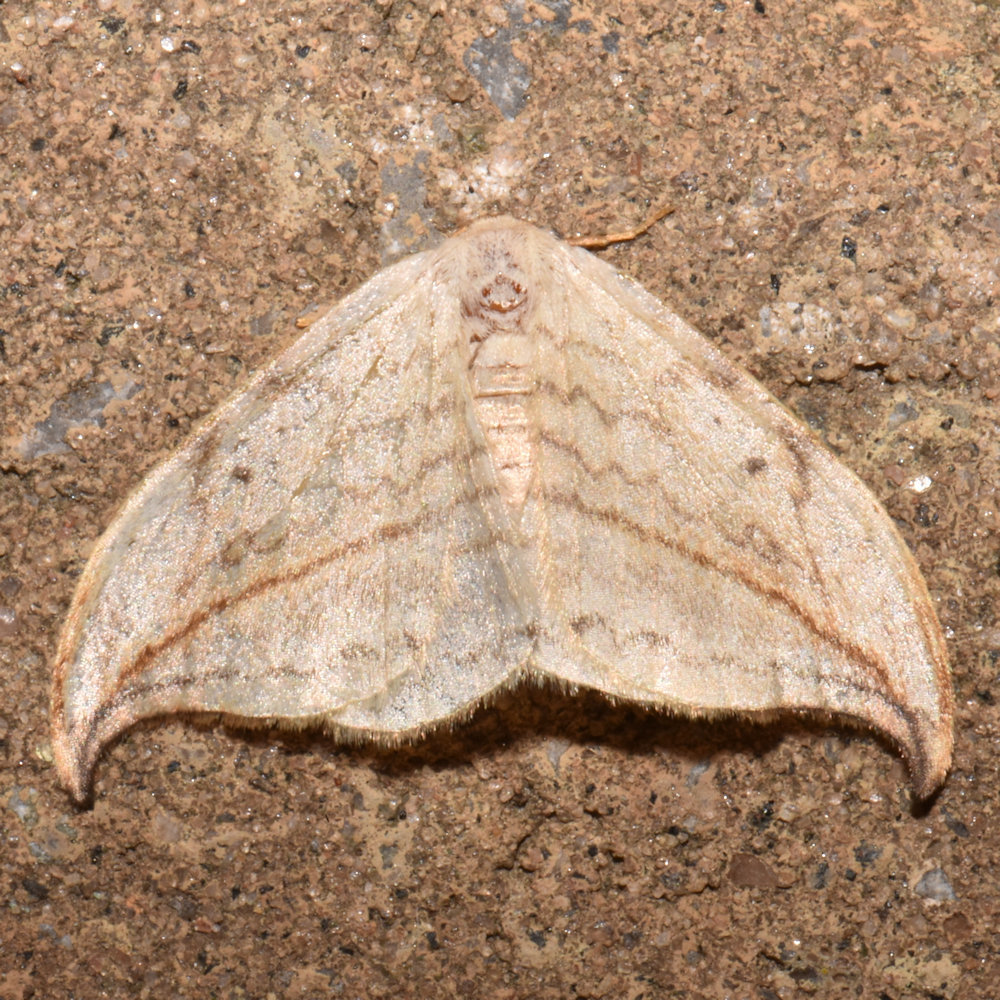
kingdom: Animalia
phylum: Arthropoda
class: Insecta
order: Lepidoptera
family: Drepanidae
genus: Drepana
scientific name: Drepana arcuata
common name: Arched hooktip moth
